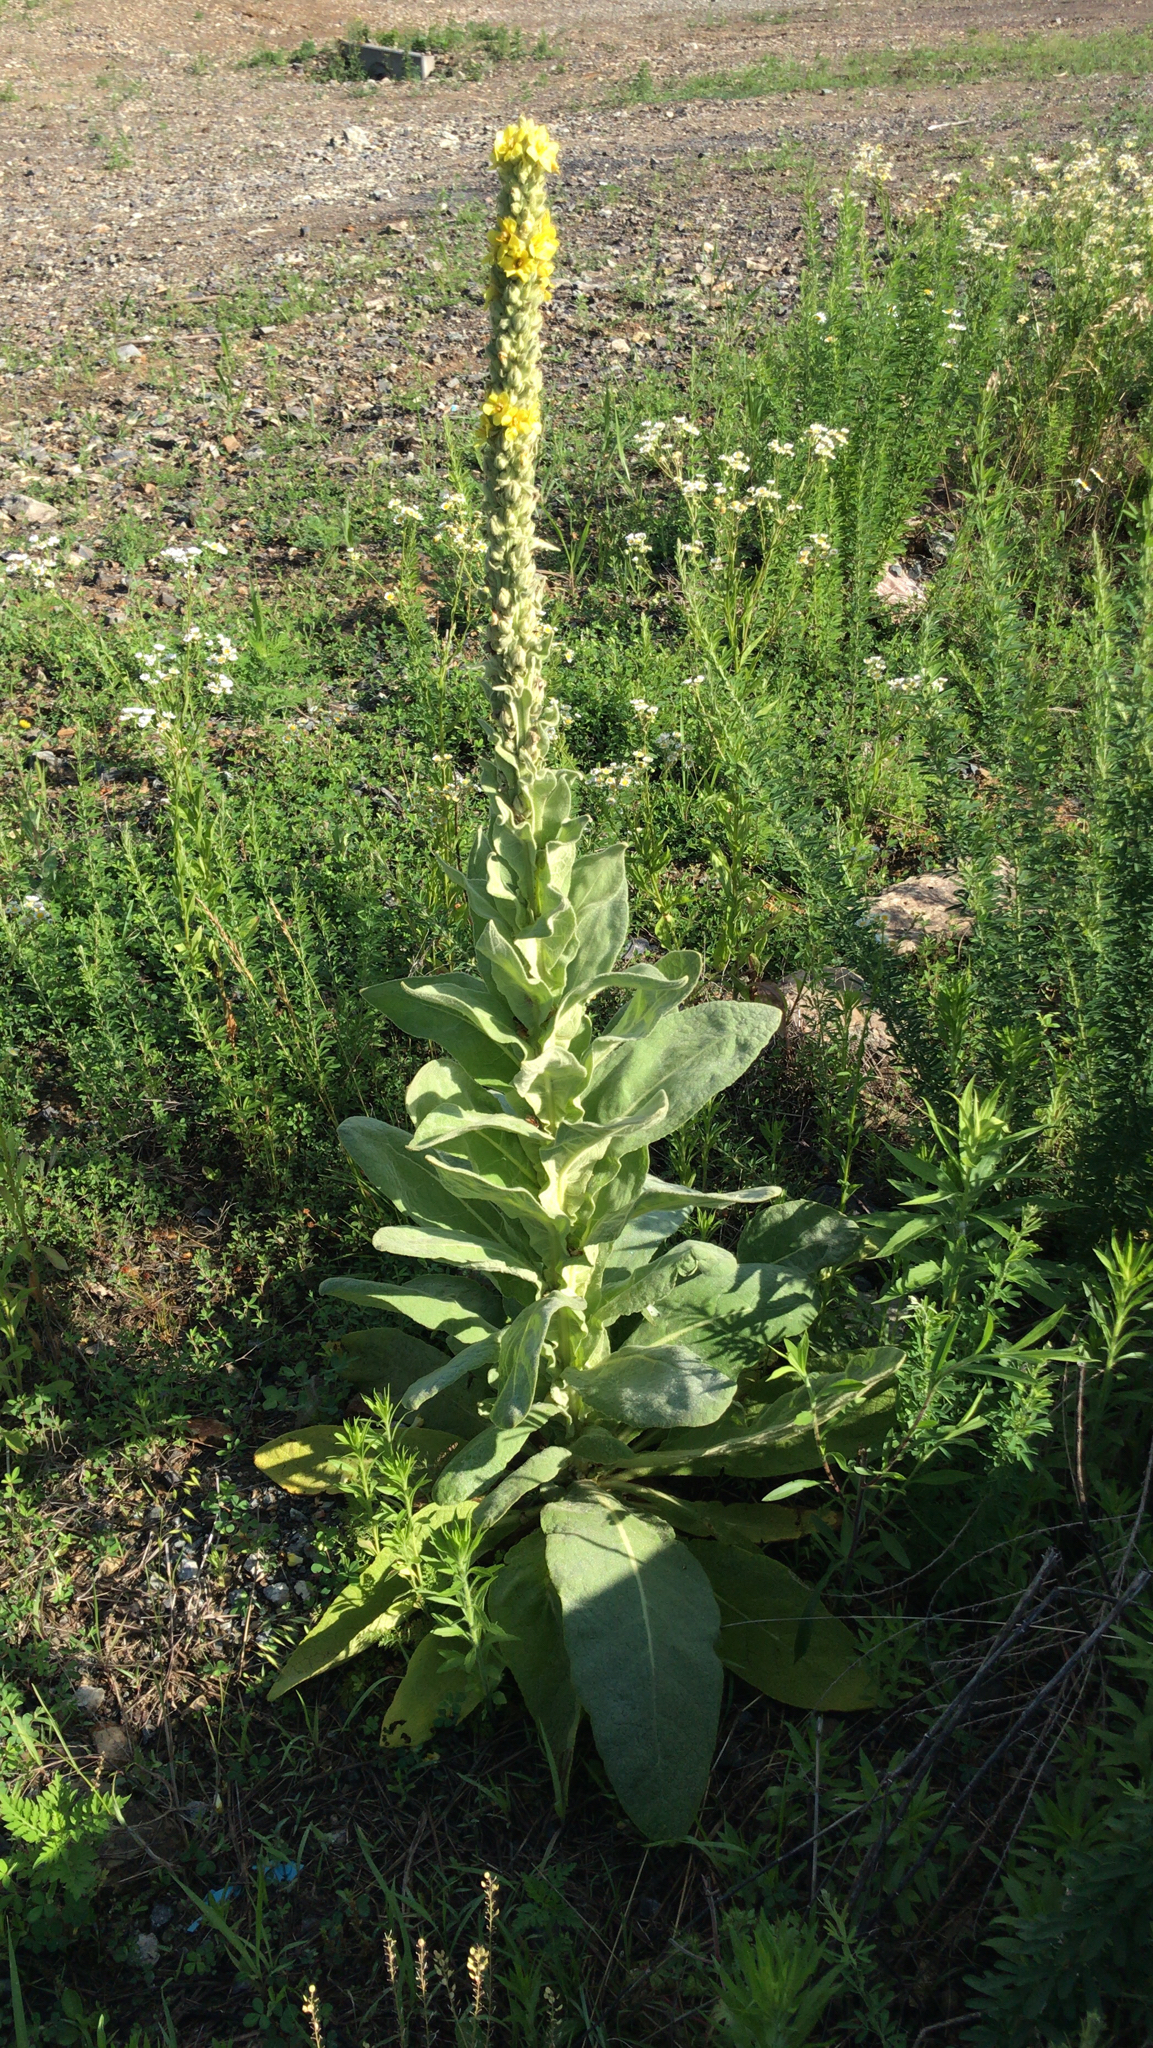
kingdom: Plantae
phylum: Tracheophyta
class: Magnoliopsida
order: Lamiales
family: Scrophulariaceae
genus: Verbascum
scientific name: Verbascum thapsus
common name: Common mullein
